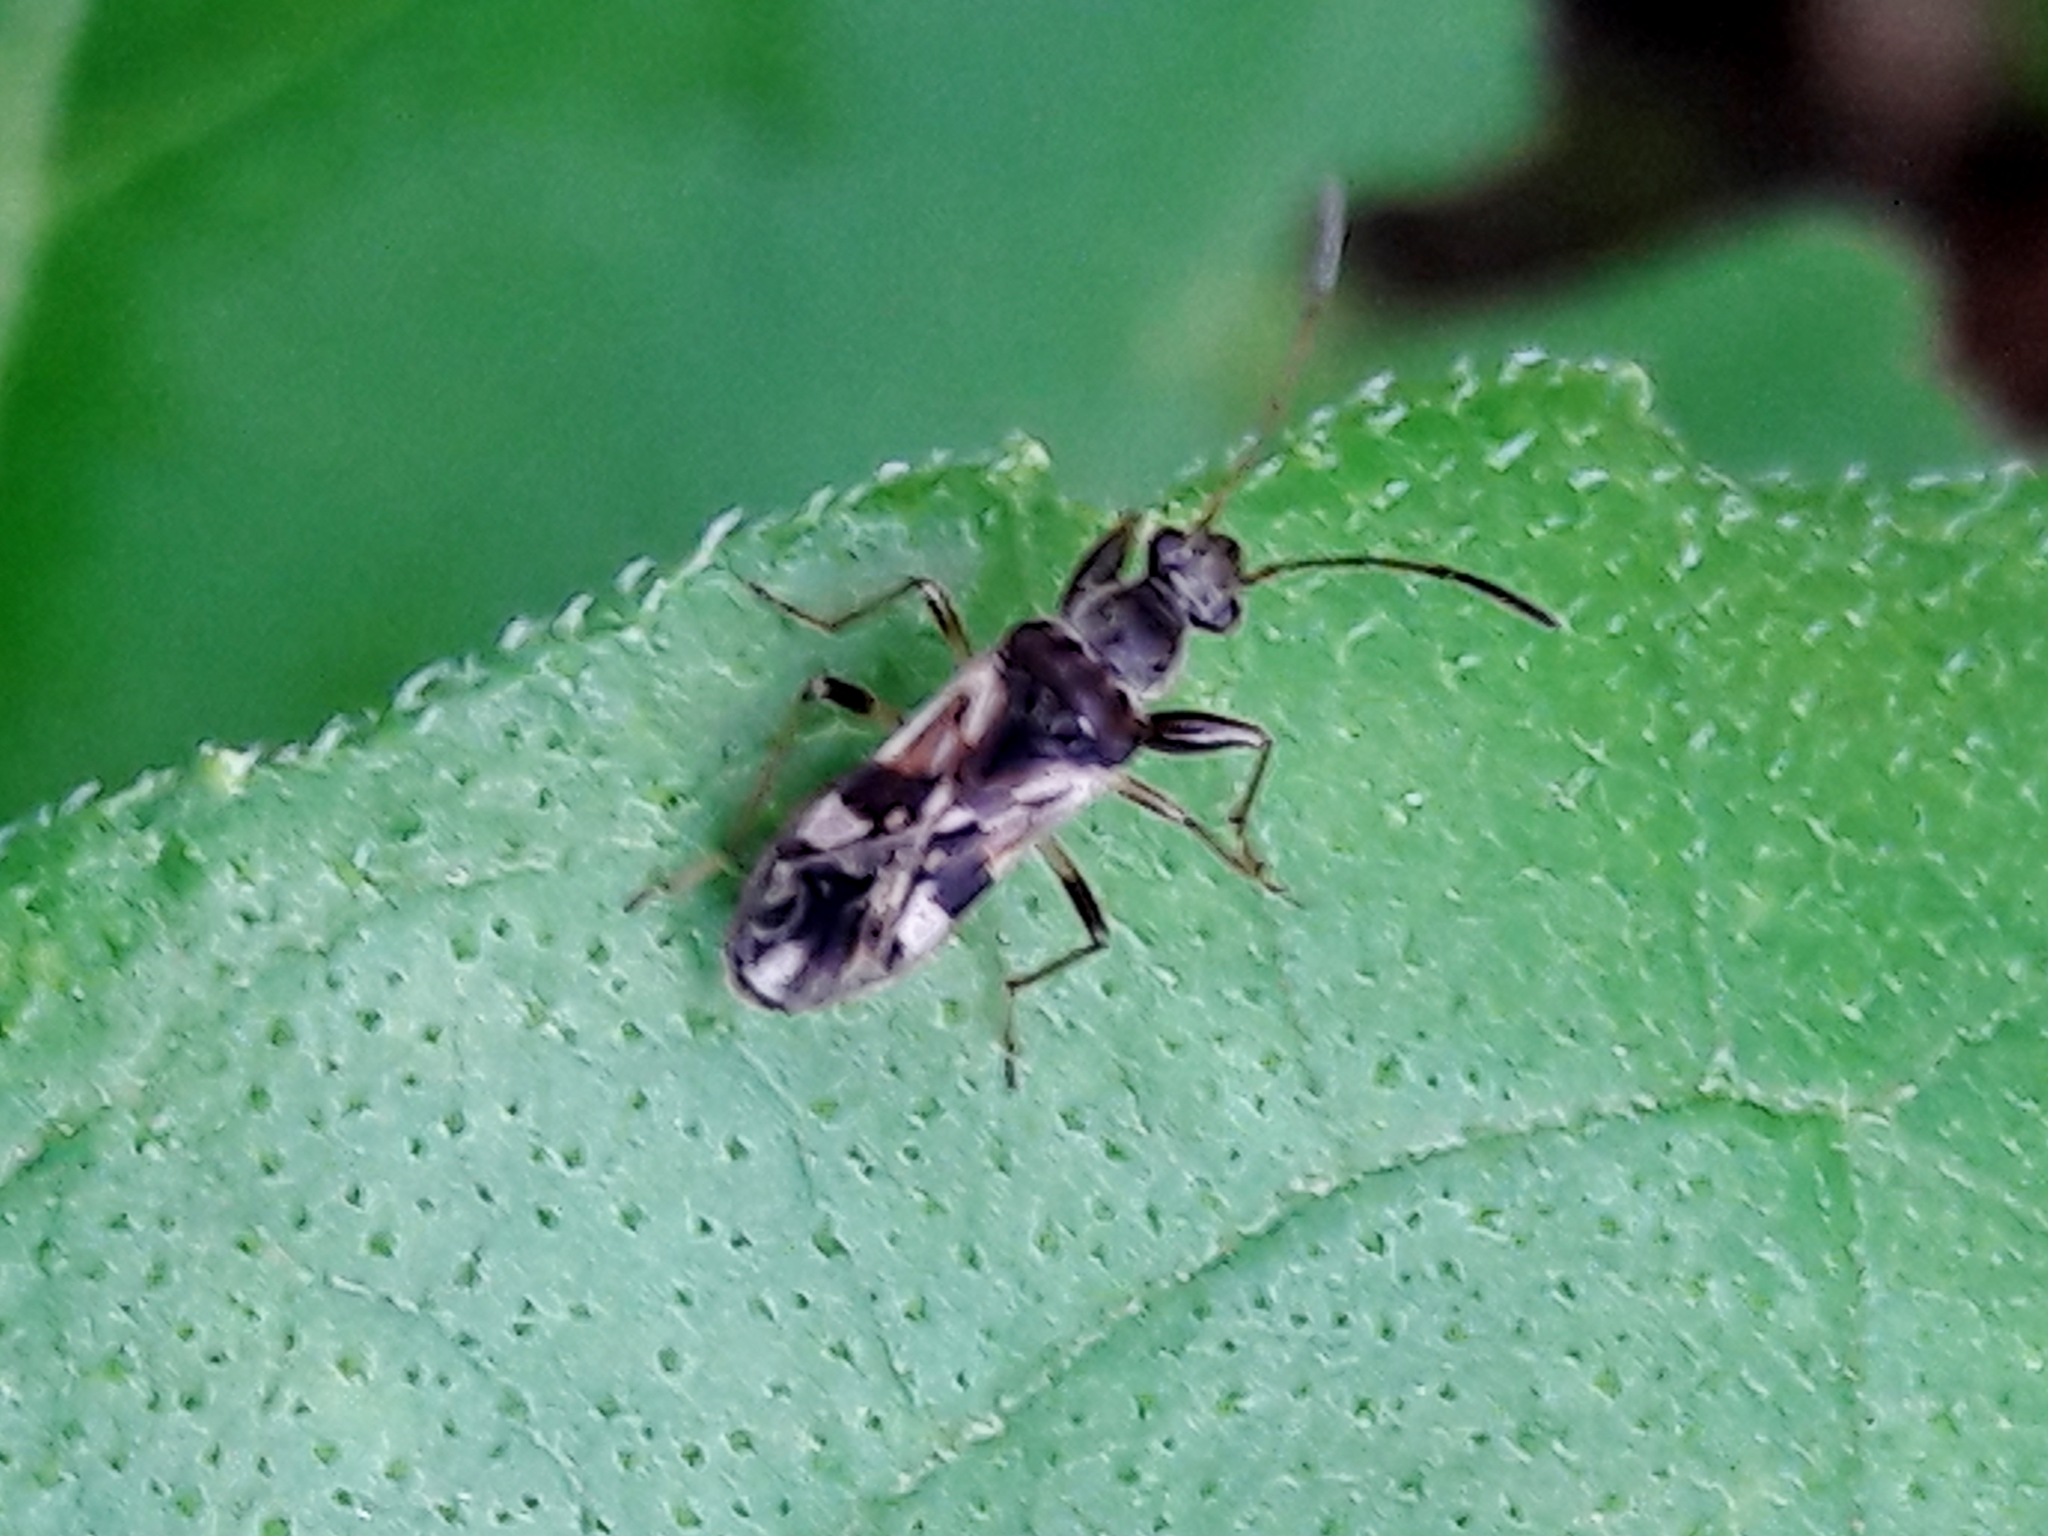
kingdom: Animalia
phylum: Arthropoda
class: Insecta
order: Hemiptera
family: Rhyparochromidae
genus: Neopamera
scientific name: Neopamera bilobata
